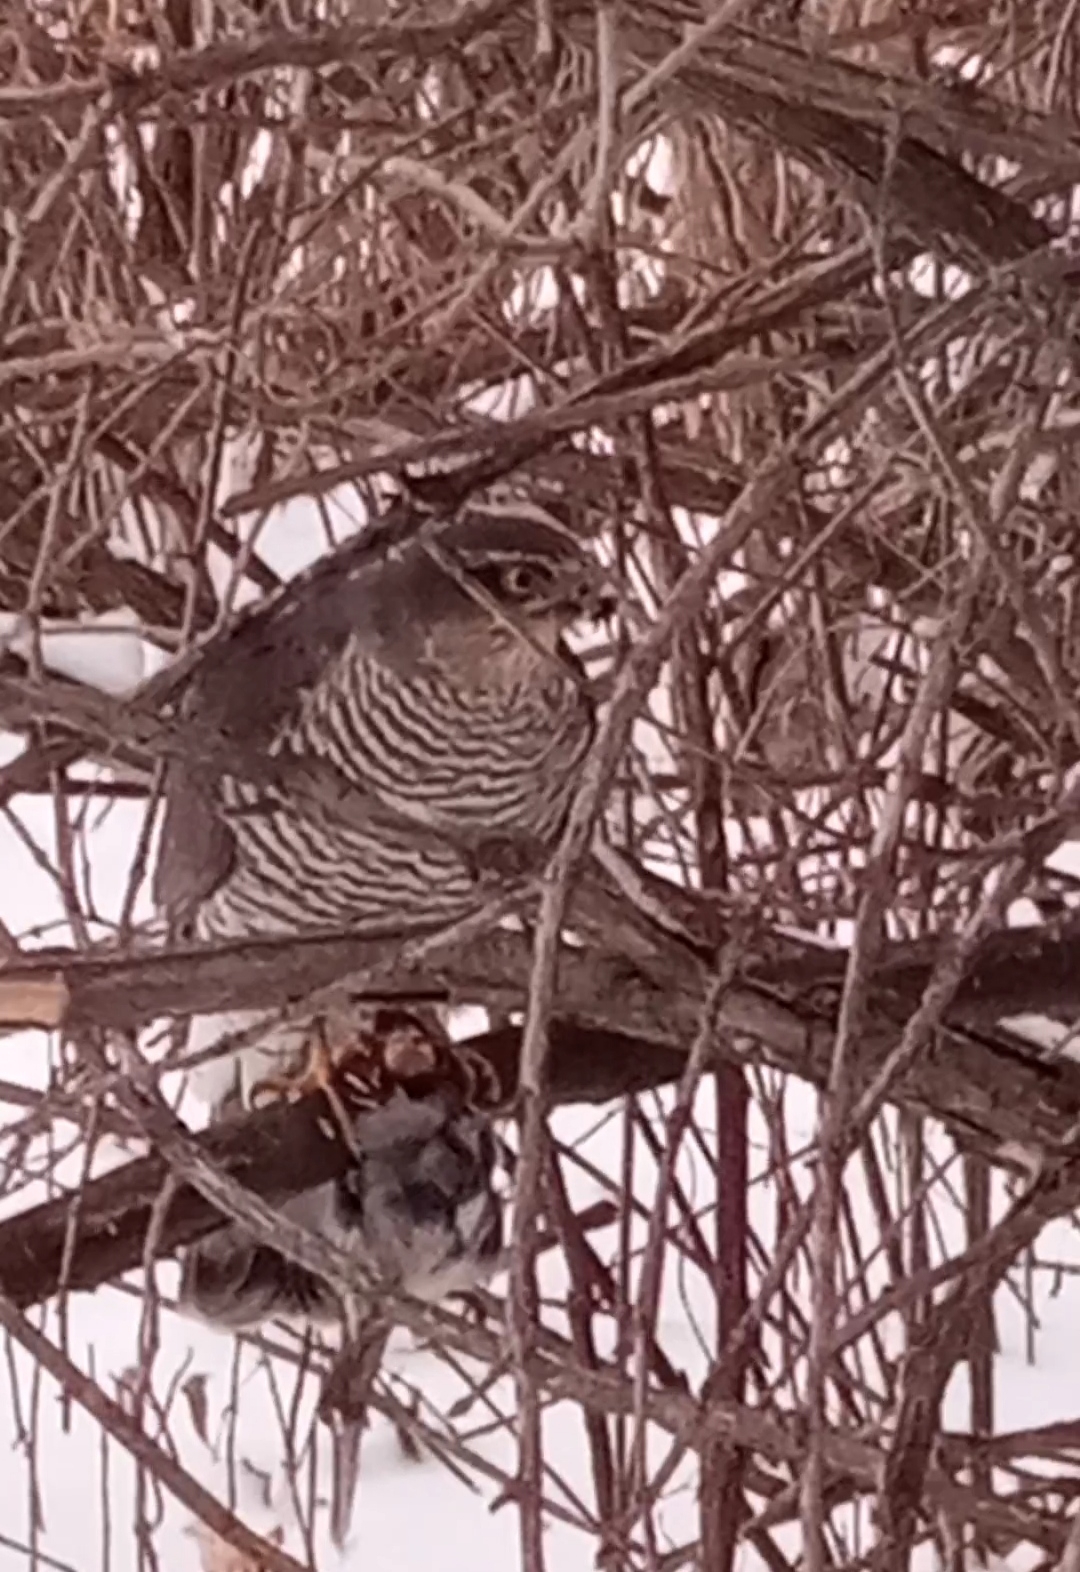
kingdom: Animalia
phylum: Chordata
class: Aves
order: Accipitriformes
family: Accipitridae
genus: Accipiter
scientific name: Accipiter nisus
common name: Eurasian sparrowhawk
